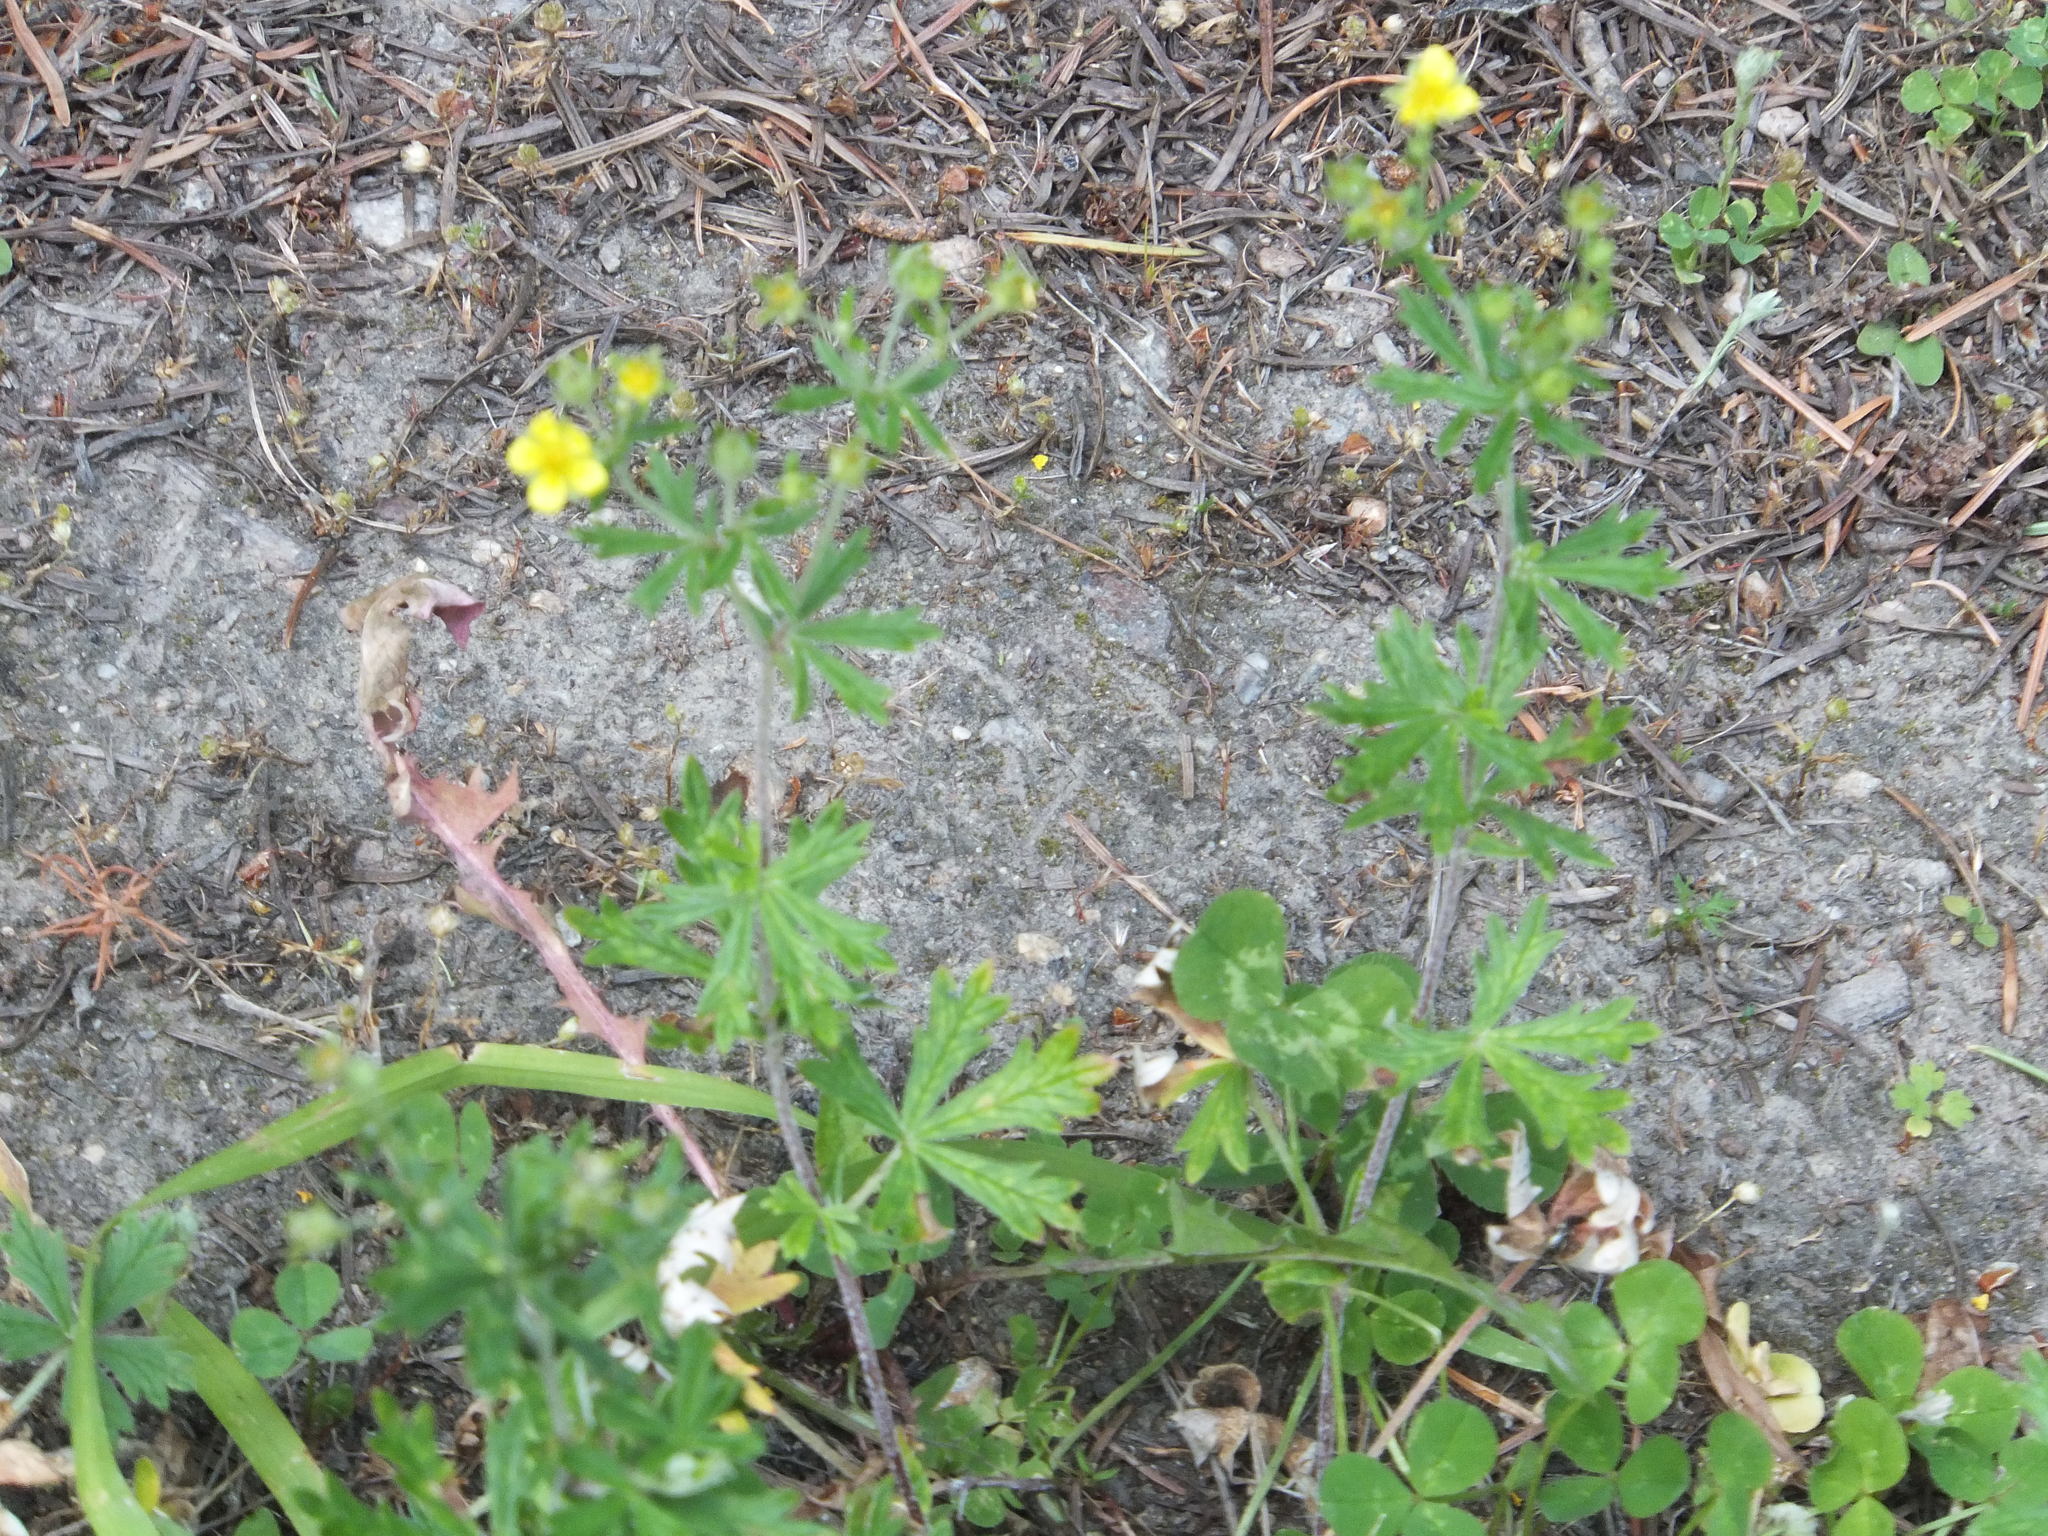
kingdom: Plantae
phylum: Tracheophyta
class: Magnoliopsida
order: Rosales
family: Rosaceae
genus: Potentilla
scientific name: Potentilla argentea
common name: Hoary cinquefoil
